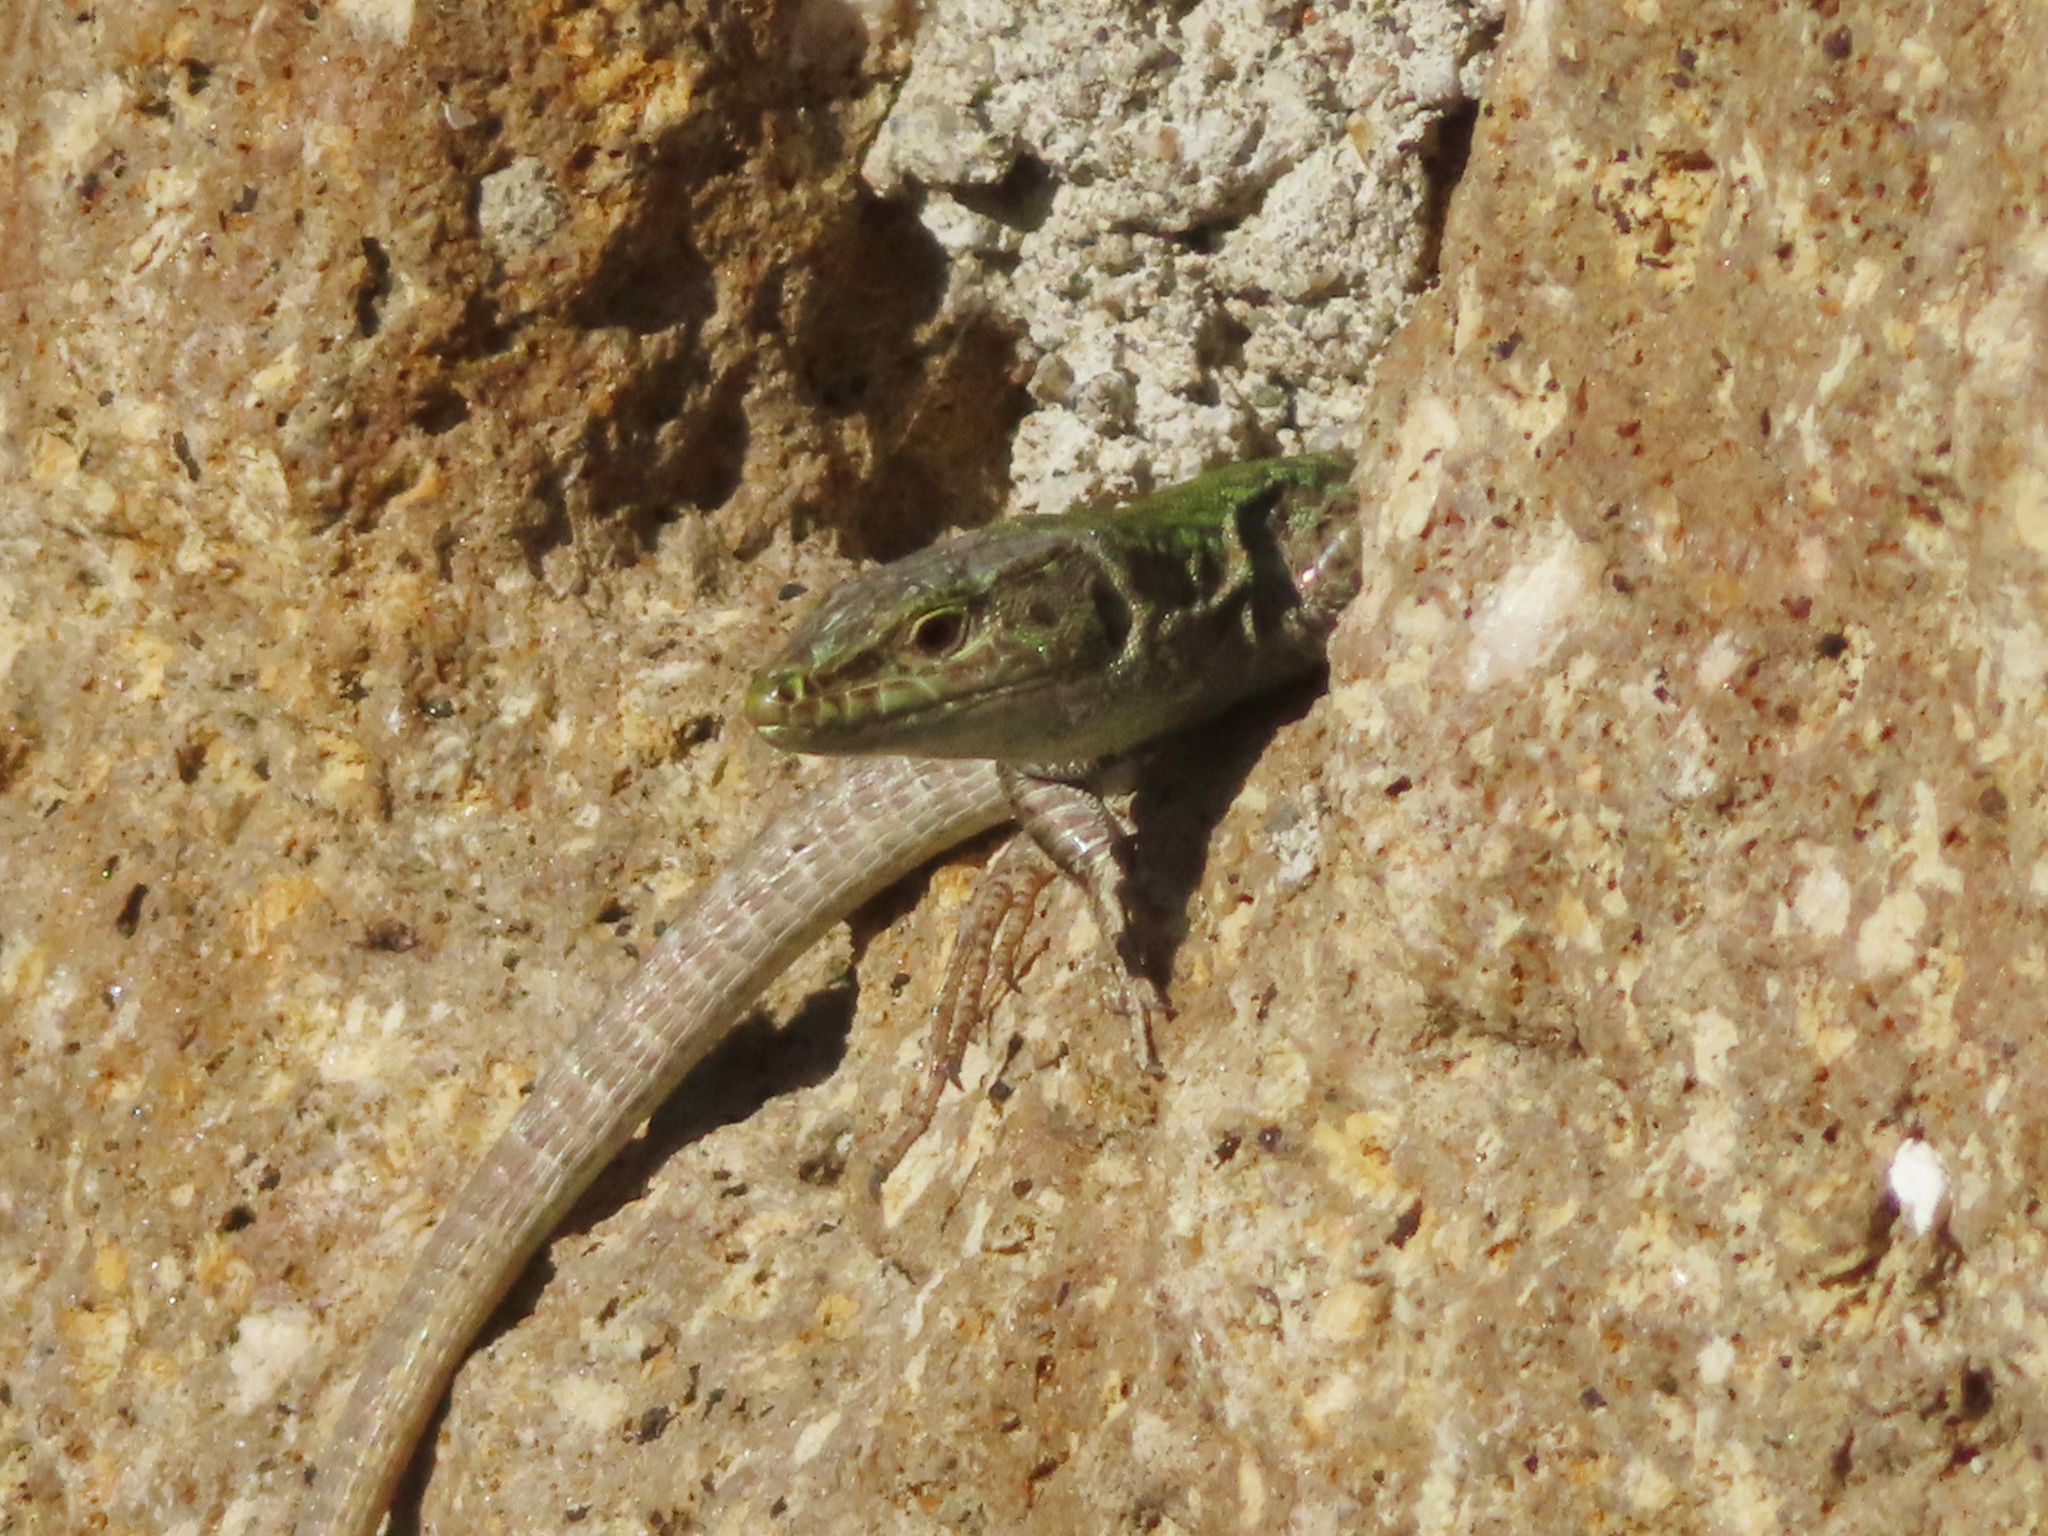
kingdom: Animalia
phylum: Chordata
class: Squamata
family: Lacertidae
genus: Podarcis
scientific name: Podarcis siculus
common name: Italian wall lizard
